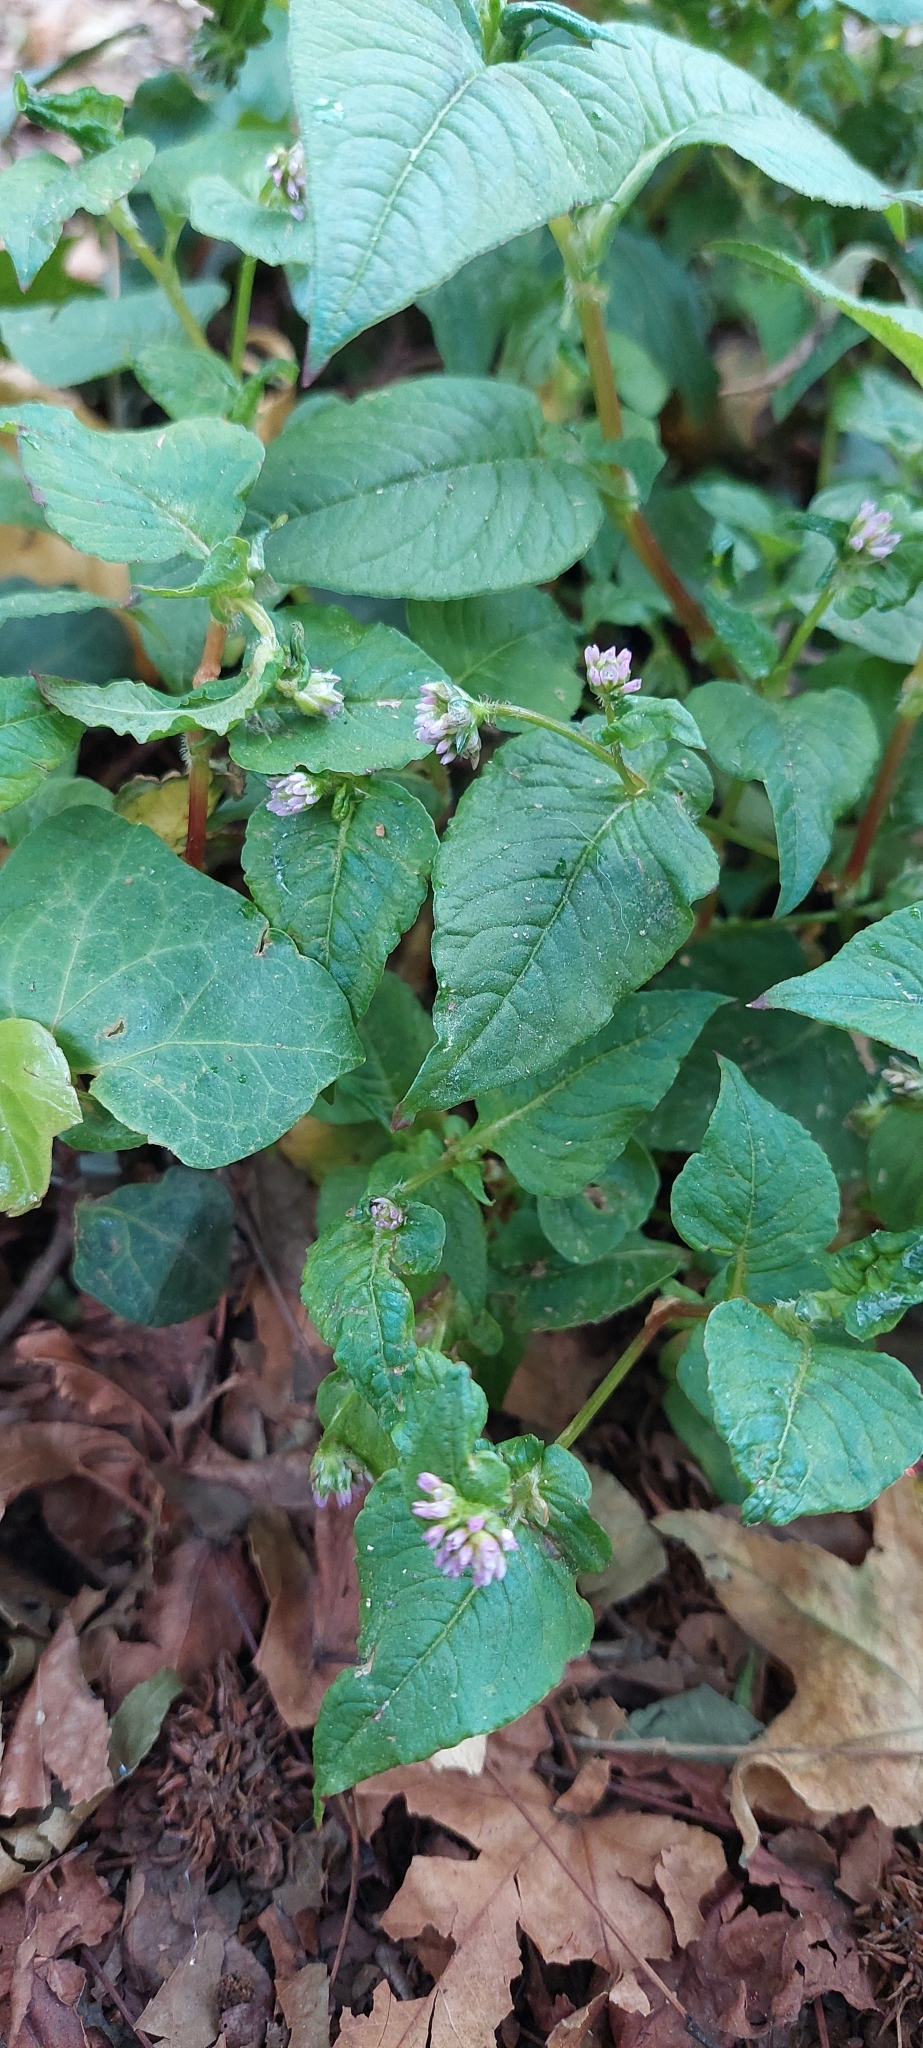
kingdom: Plantae
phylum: Tracheophyta
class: Magnoliopsida
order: Caryophyllales
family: Polygonaceae
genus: Persicaria
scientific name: Persicaria nepalensis
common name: Nepal persicaria
